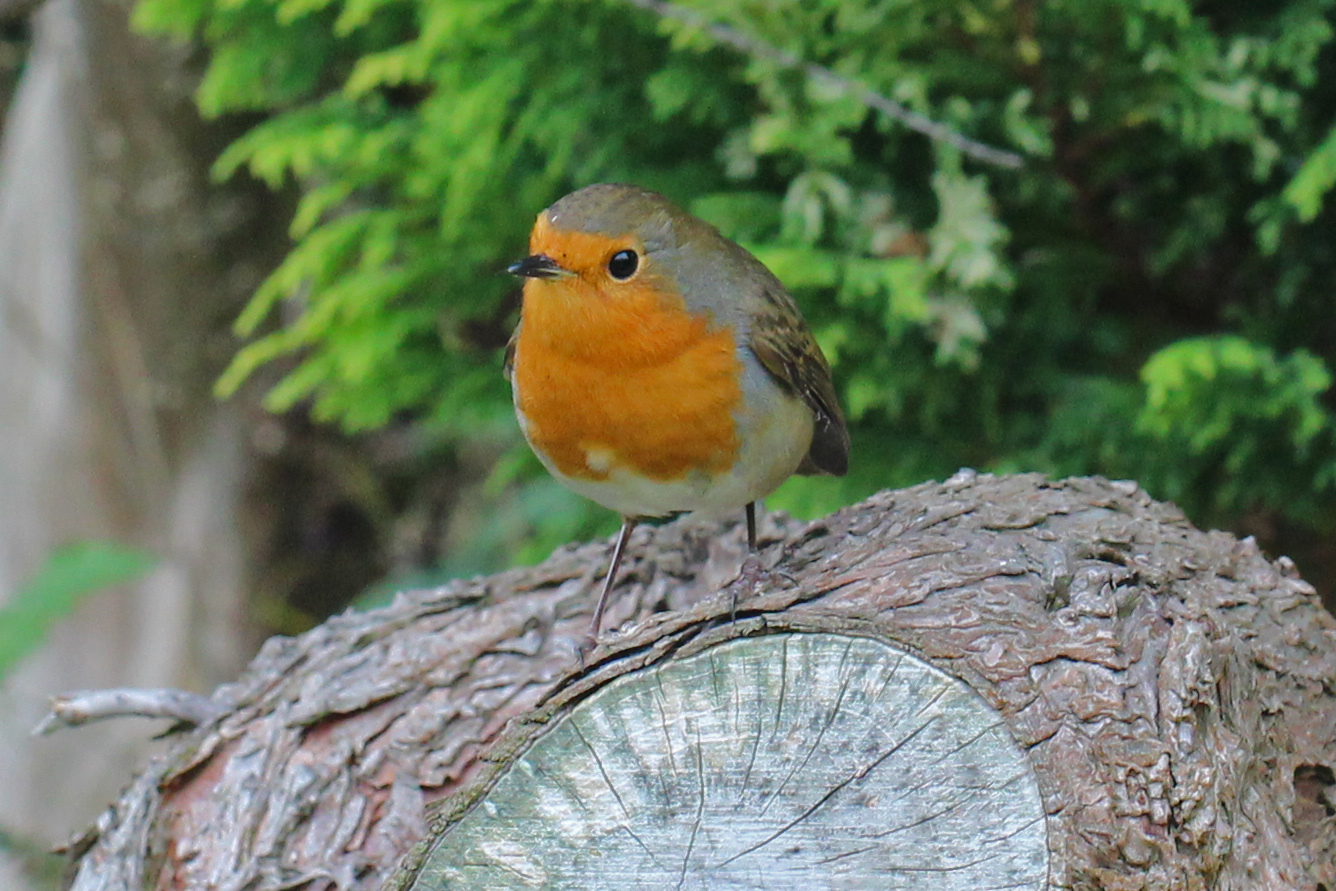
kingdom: Animalia
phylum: Chordata
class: Aves
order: Passeriformes
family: Muscicapidae
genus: Erithacus
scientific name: Erithacus rubecula
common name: European robin
